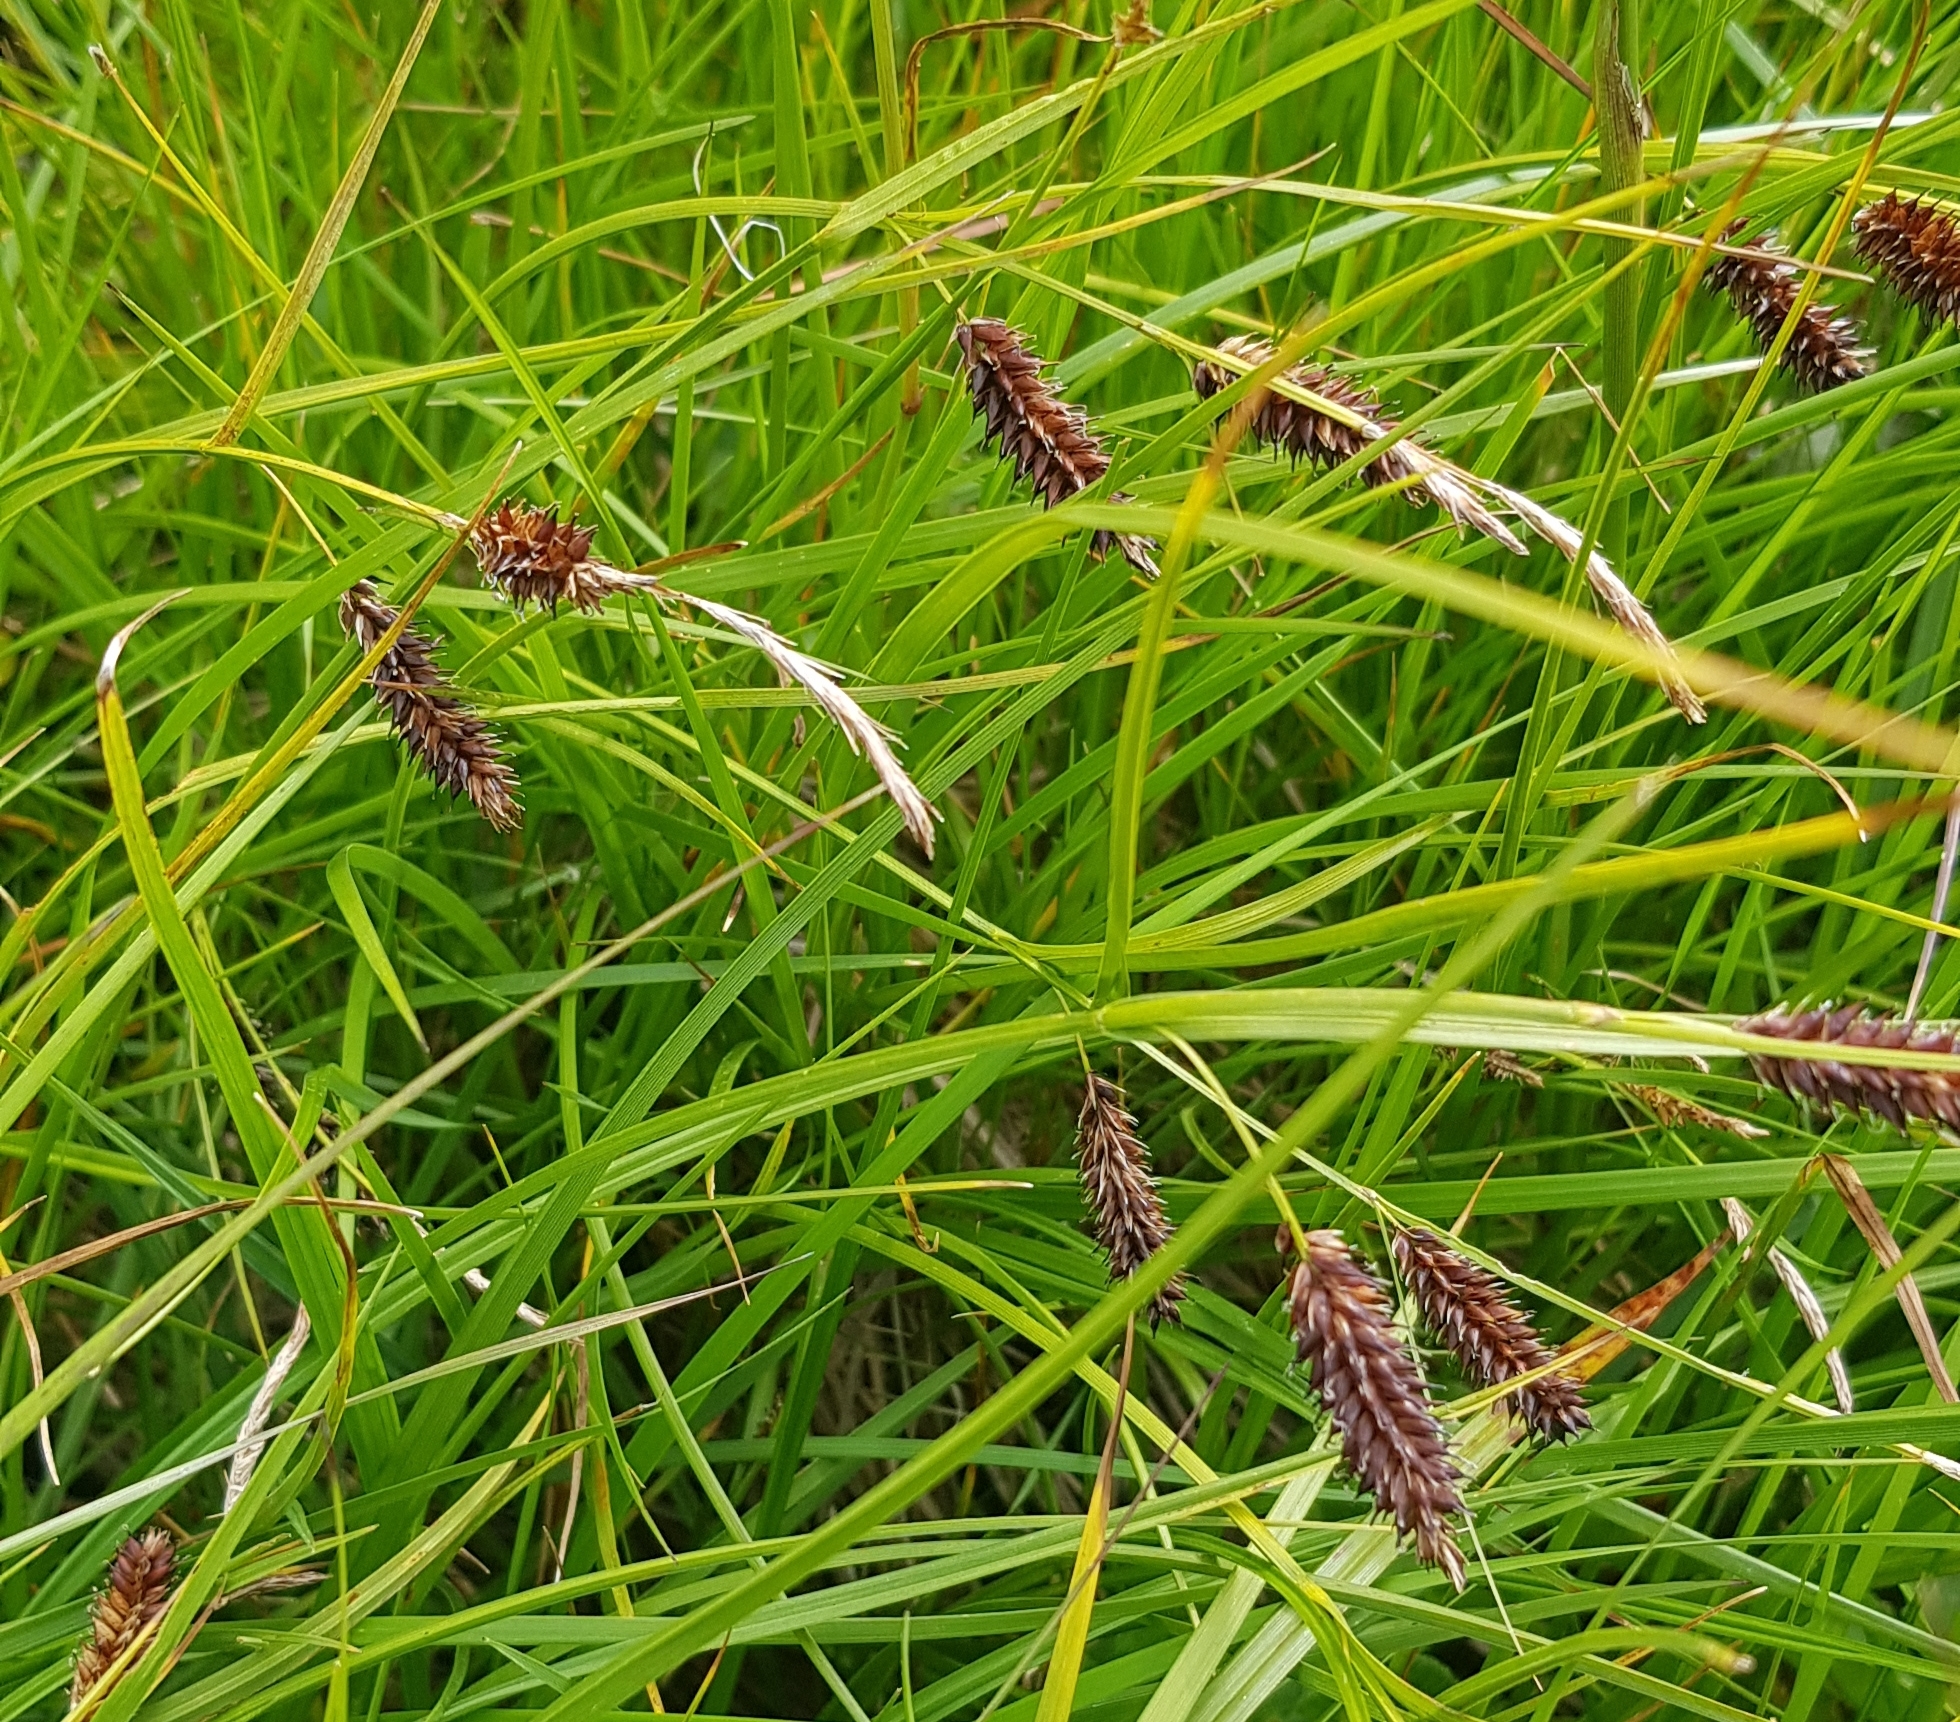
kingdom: Plantae
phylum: Tracheophyta
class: Liliopsida
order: Poales
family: Cyperaceae
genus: Carex
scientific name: Carex ledebouriana
